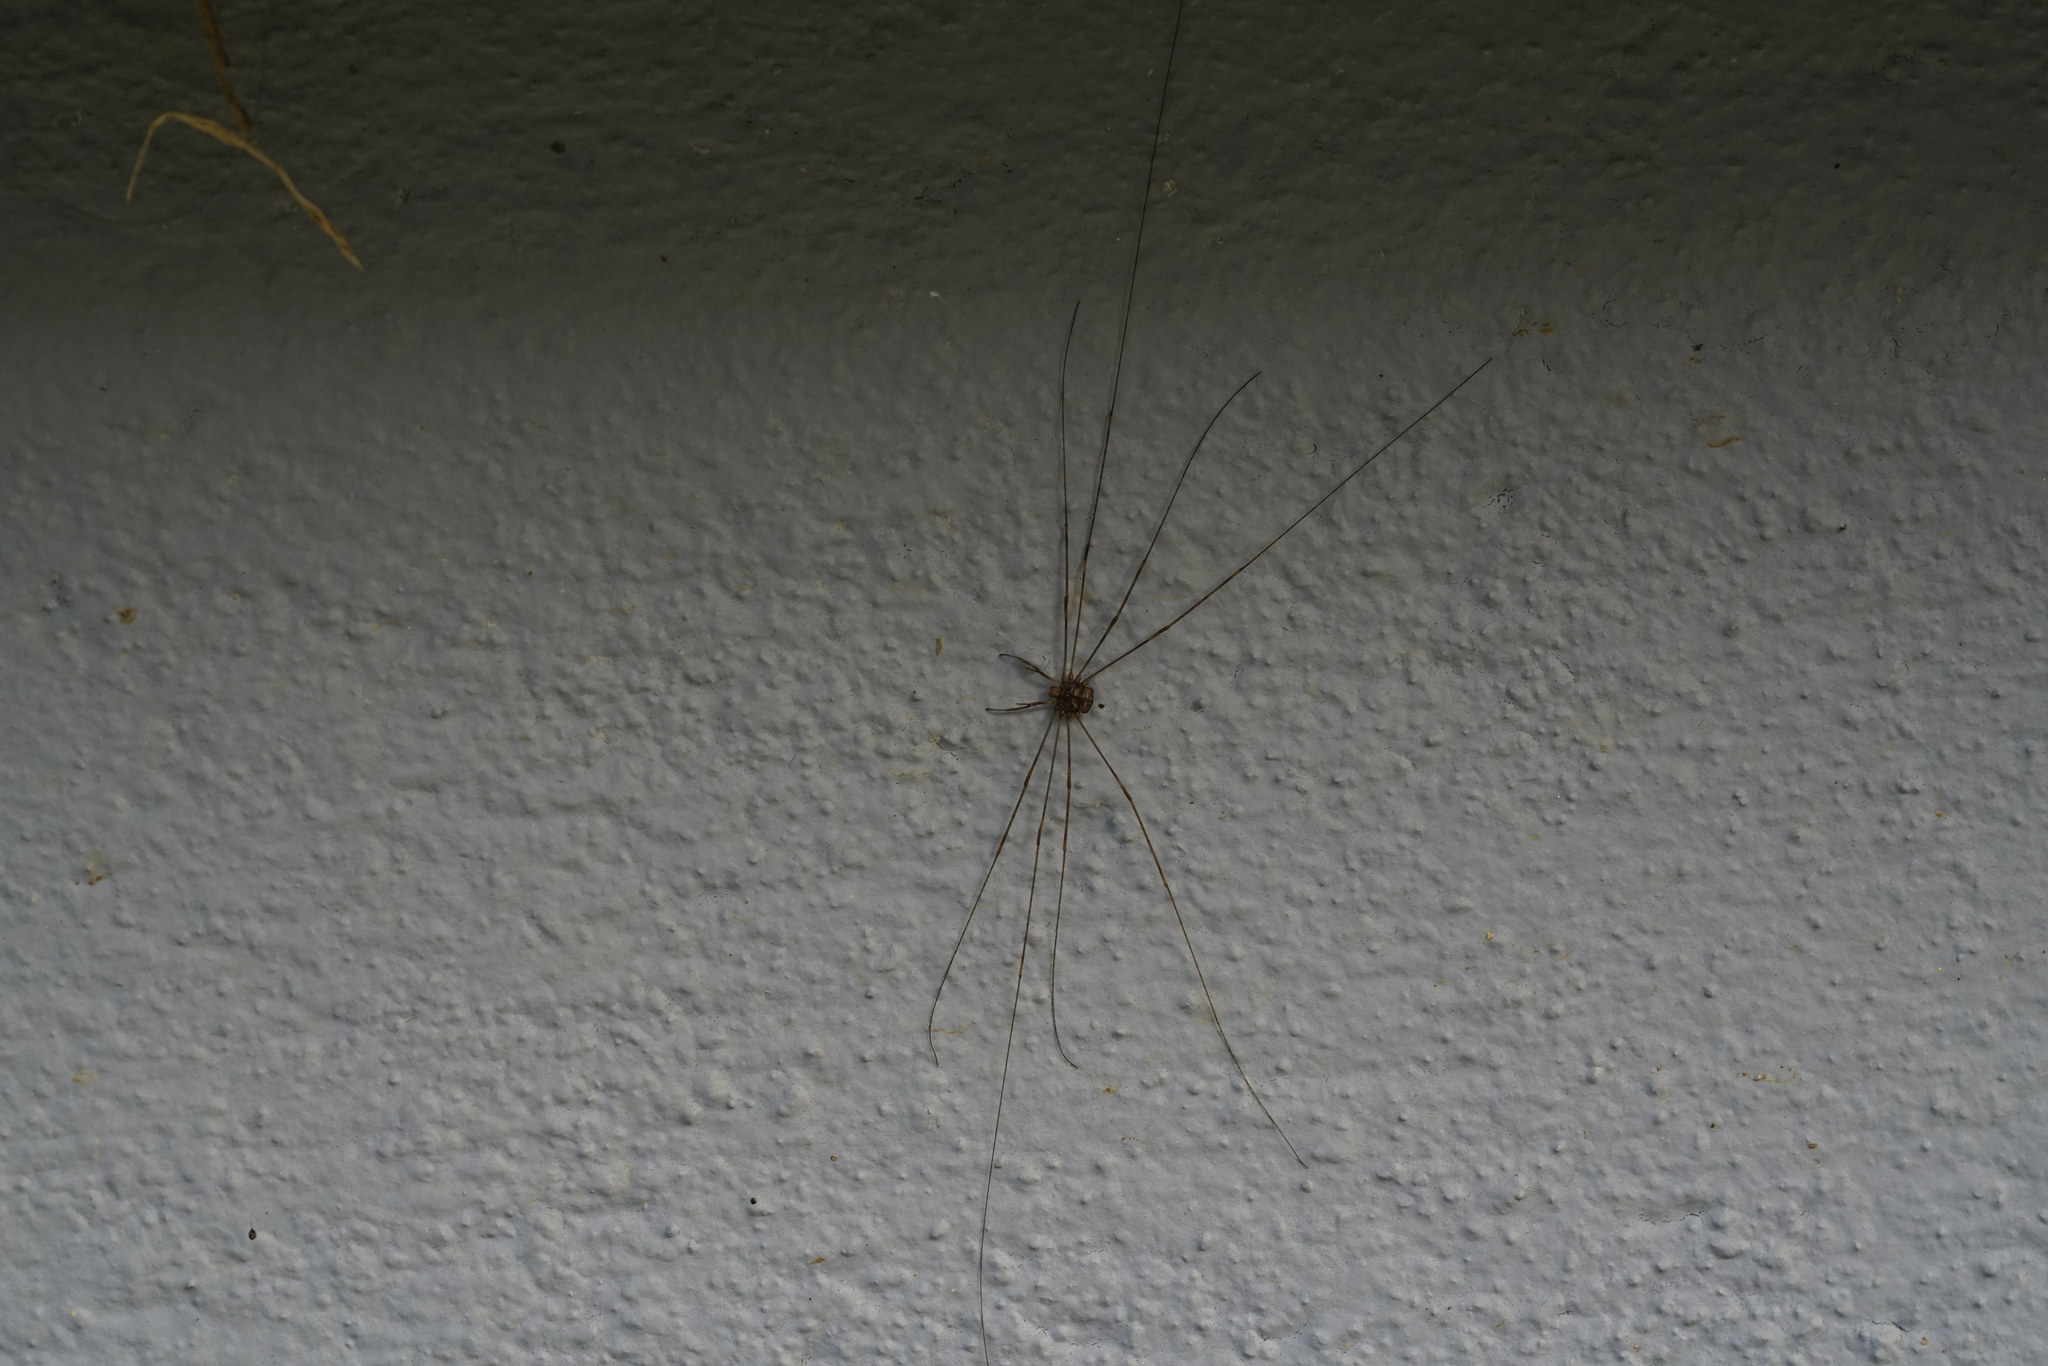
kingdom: Animalia
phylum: Arthropoda
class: Arachnida
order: Opiliones
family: Phalangiidae
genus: Dicranopalpus
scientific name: Dicranopalpus ramosus
